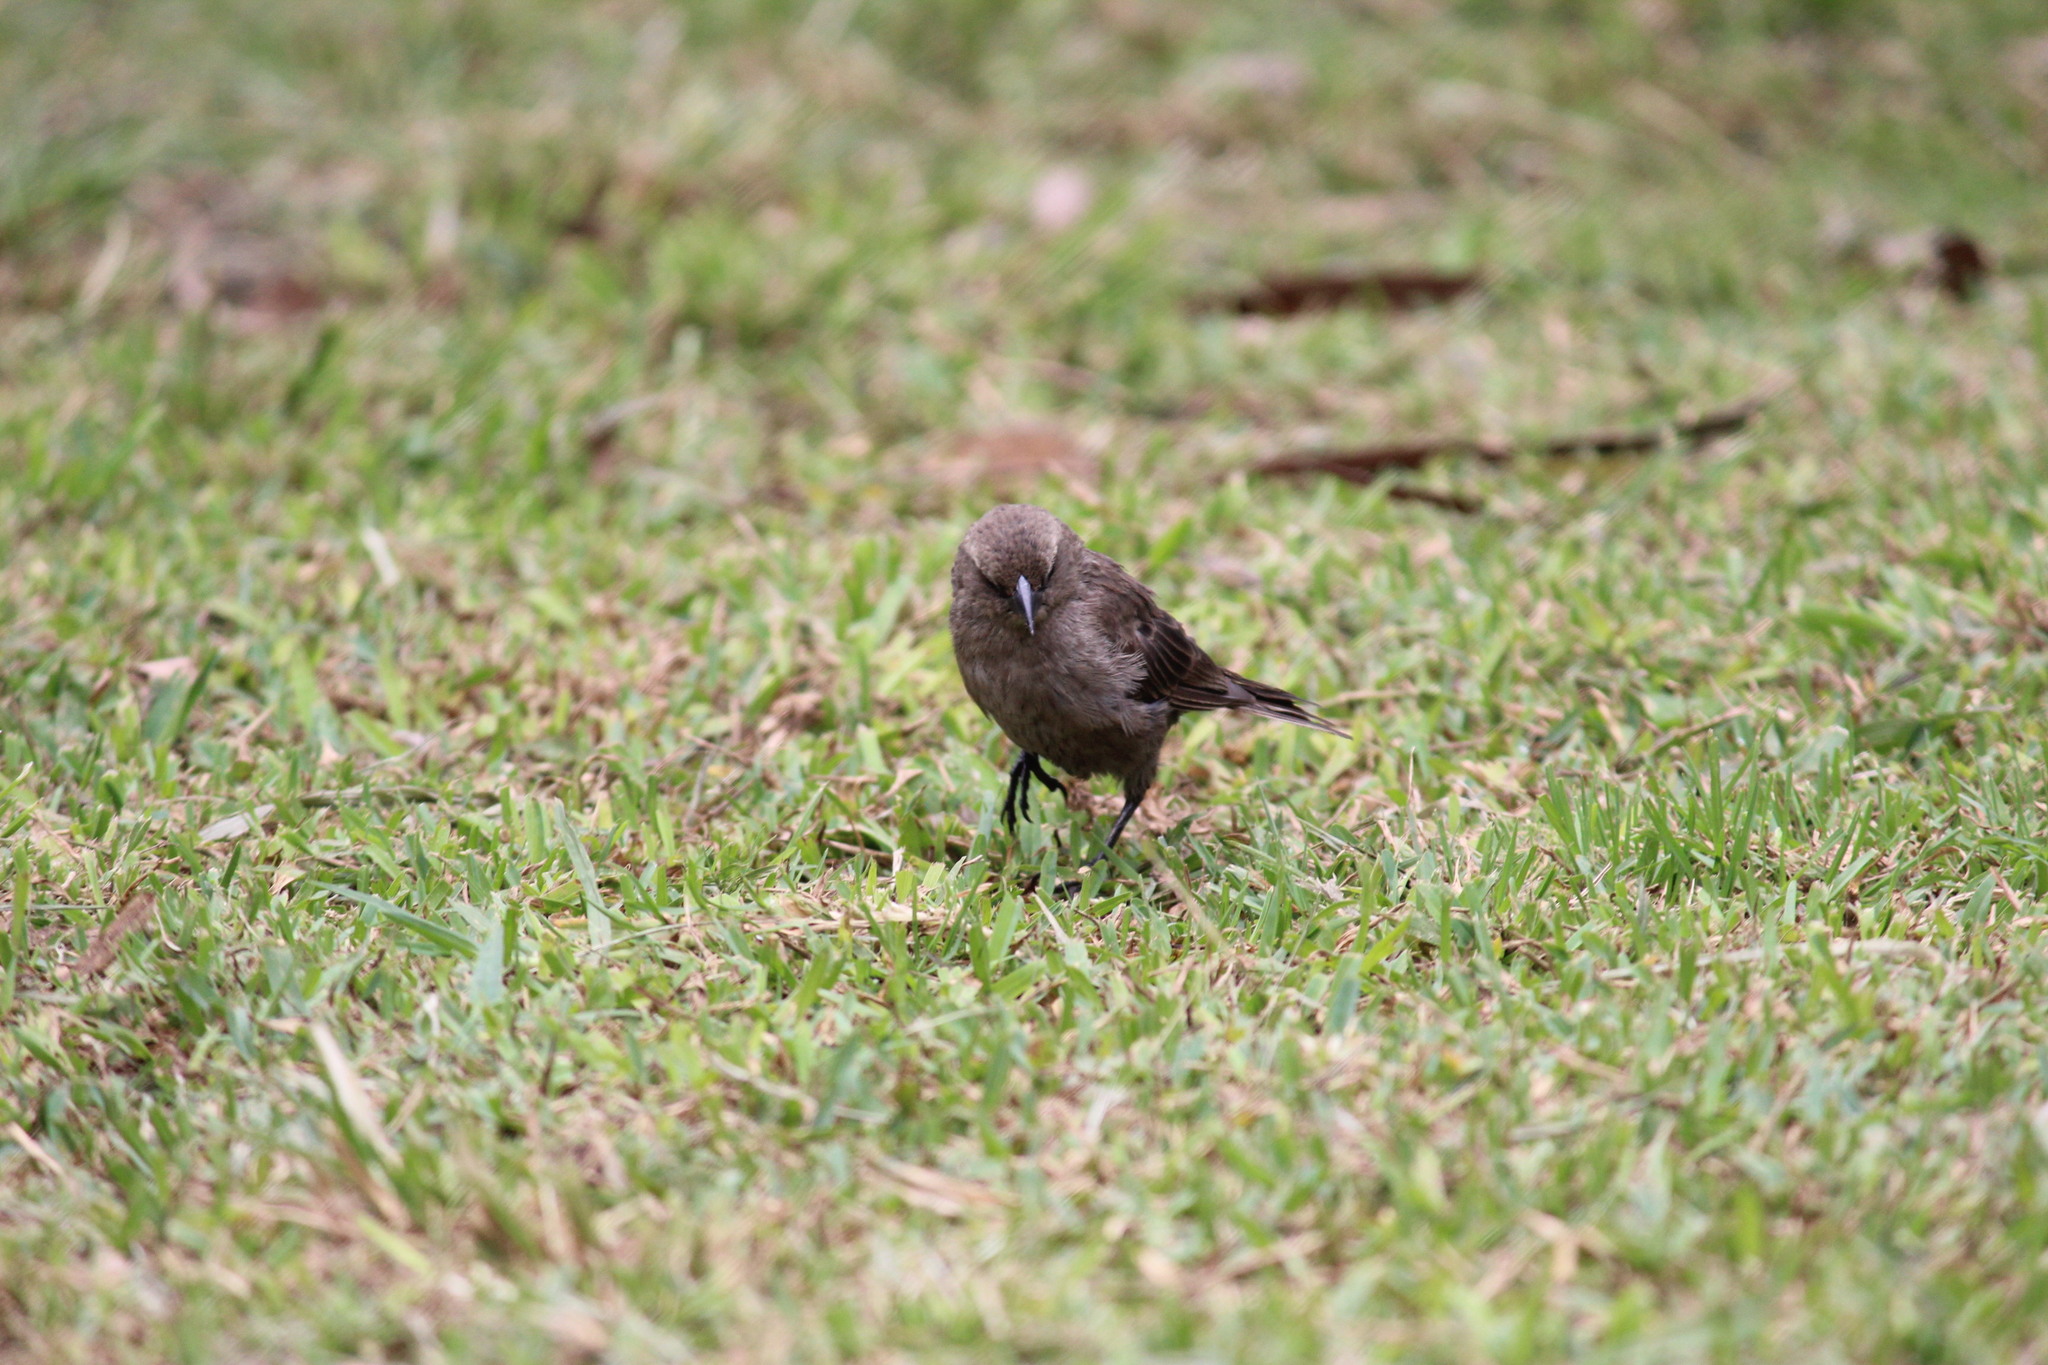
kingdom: Animalia
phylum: Chordata
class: Aves
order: Passeriformes
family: Icteridae
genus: Molothrus
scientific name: Molothrus bonariensis
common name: Shiny cowbird
